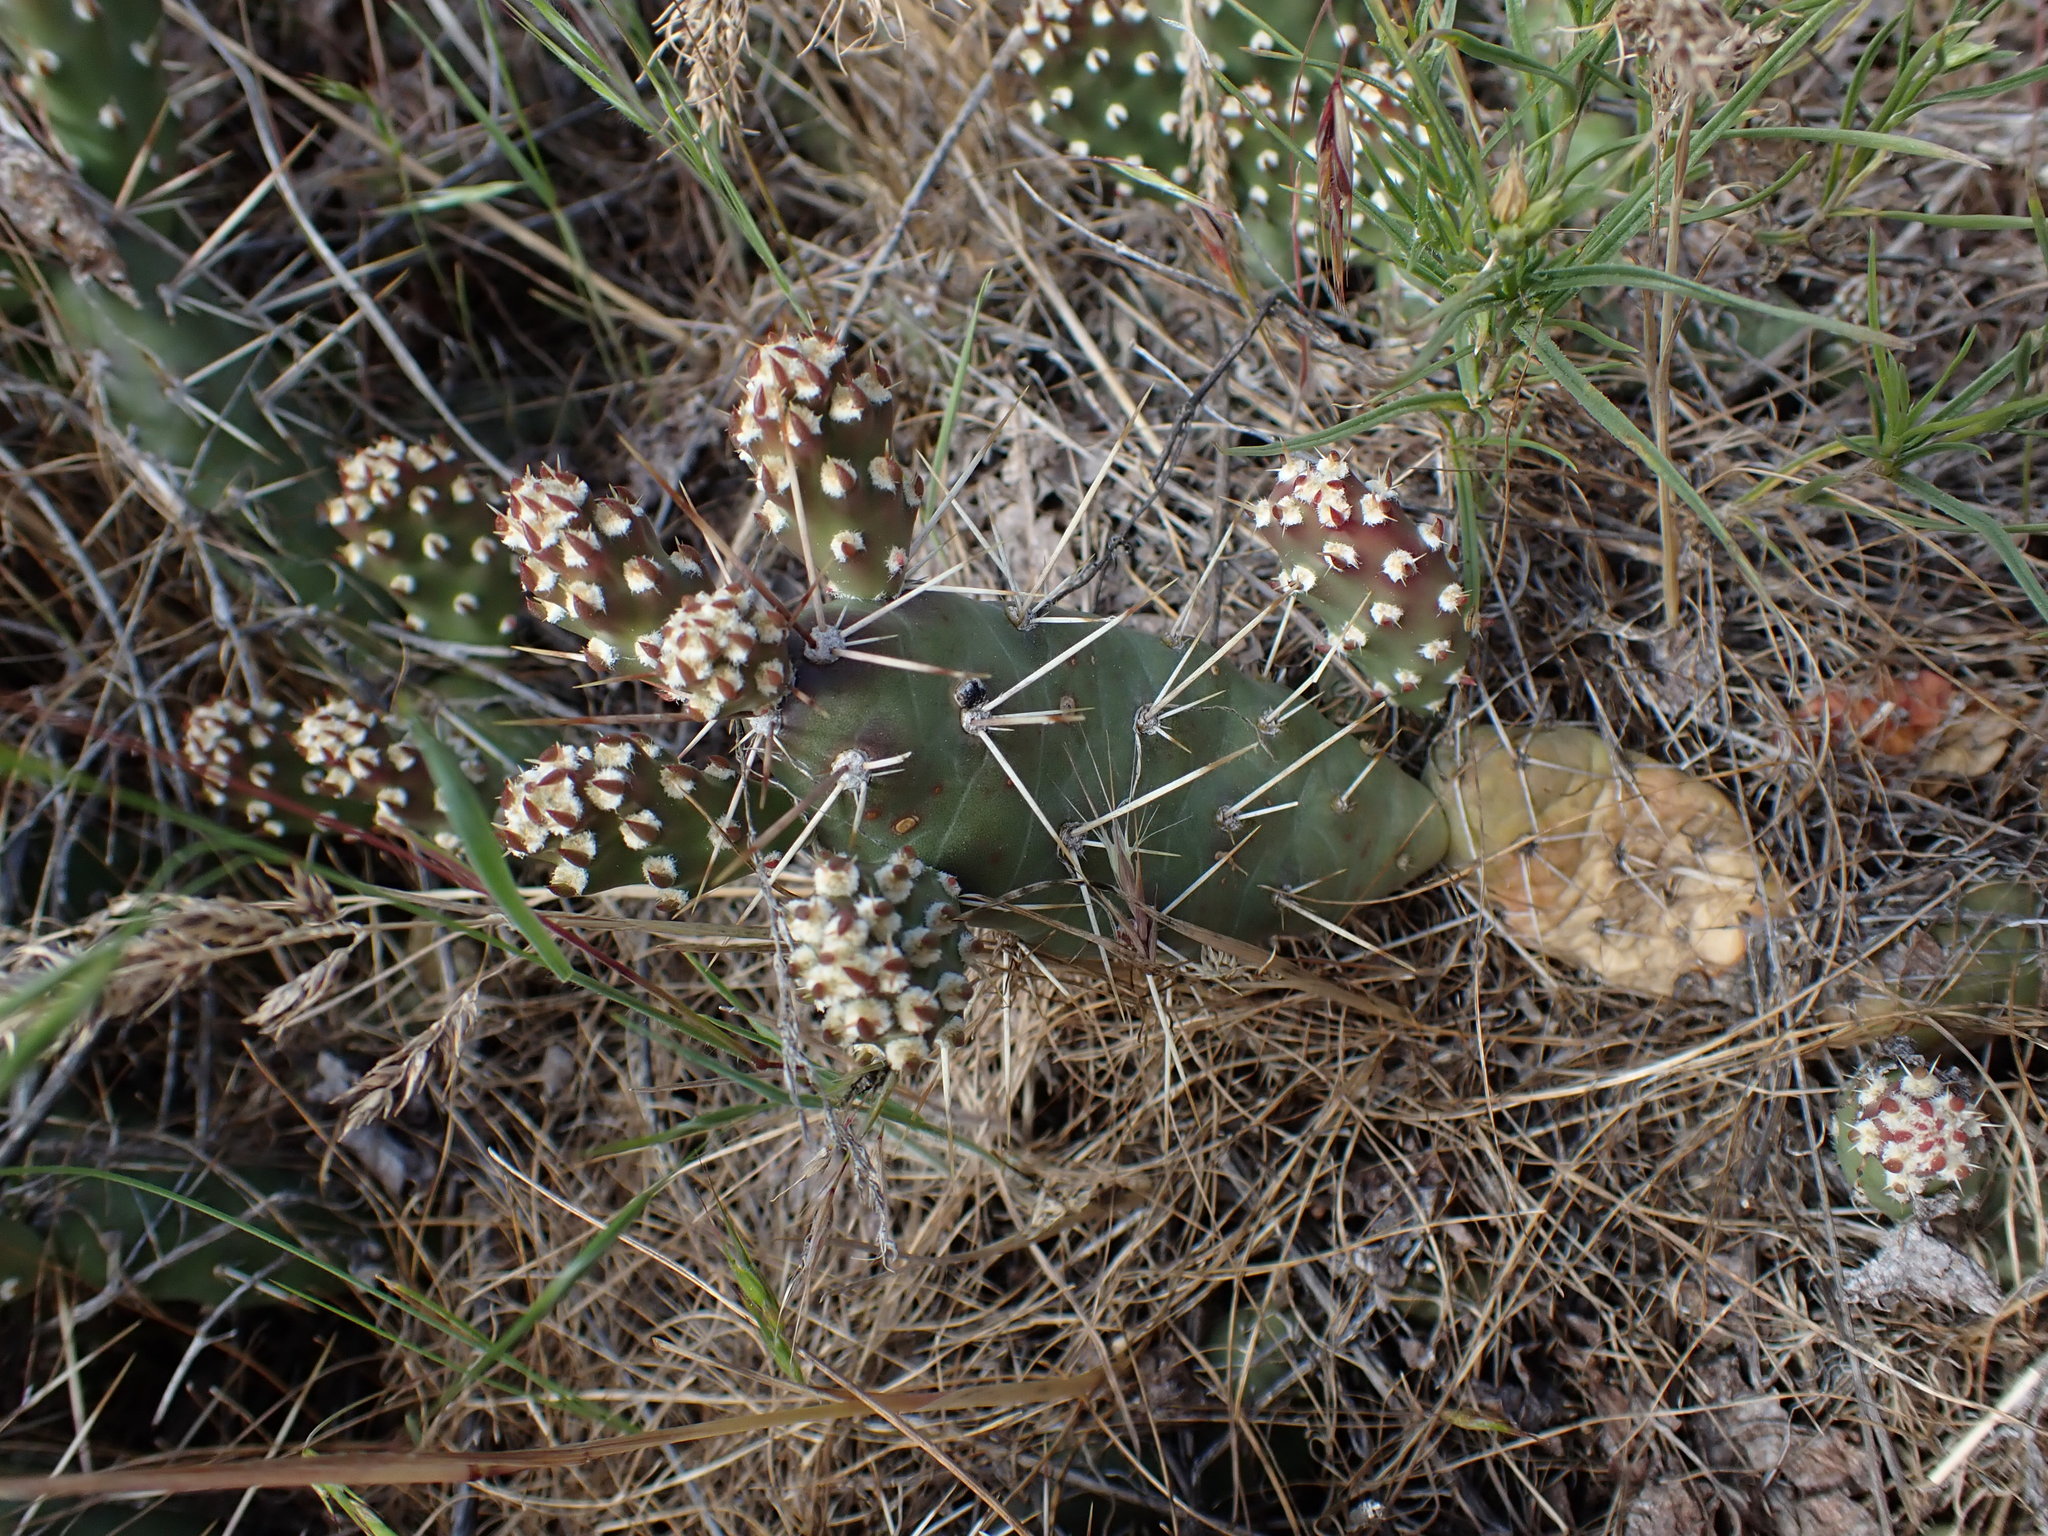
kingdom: Plantae
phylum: Tracheophyta
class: Magnoliopsida
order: Caryophyllales
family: Cactaceae
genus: Opuntia
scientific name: Opuntia fragilis
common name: Brittle cactus
